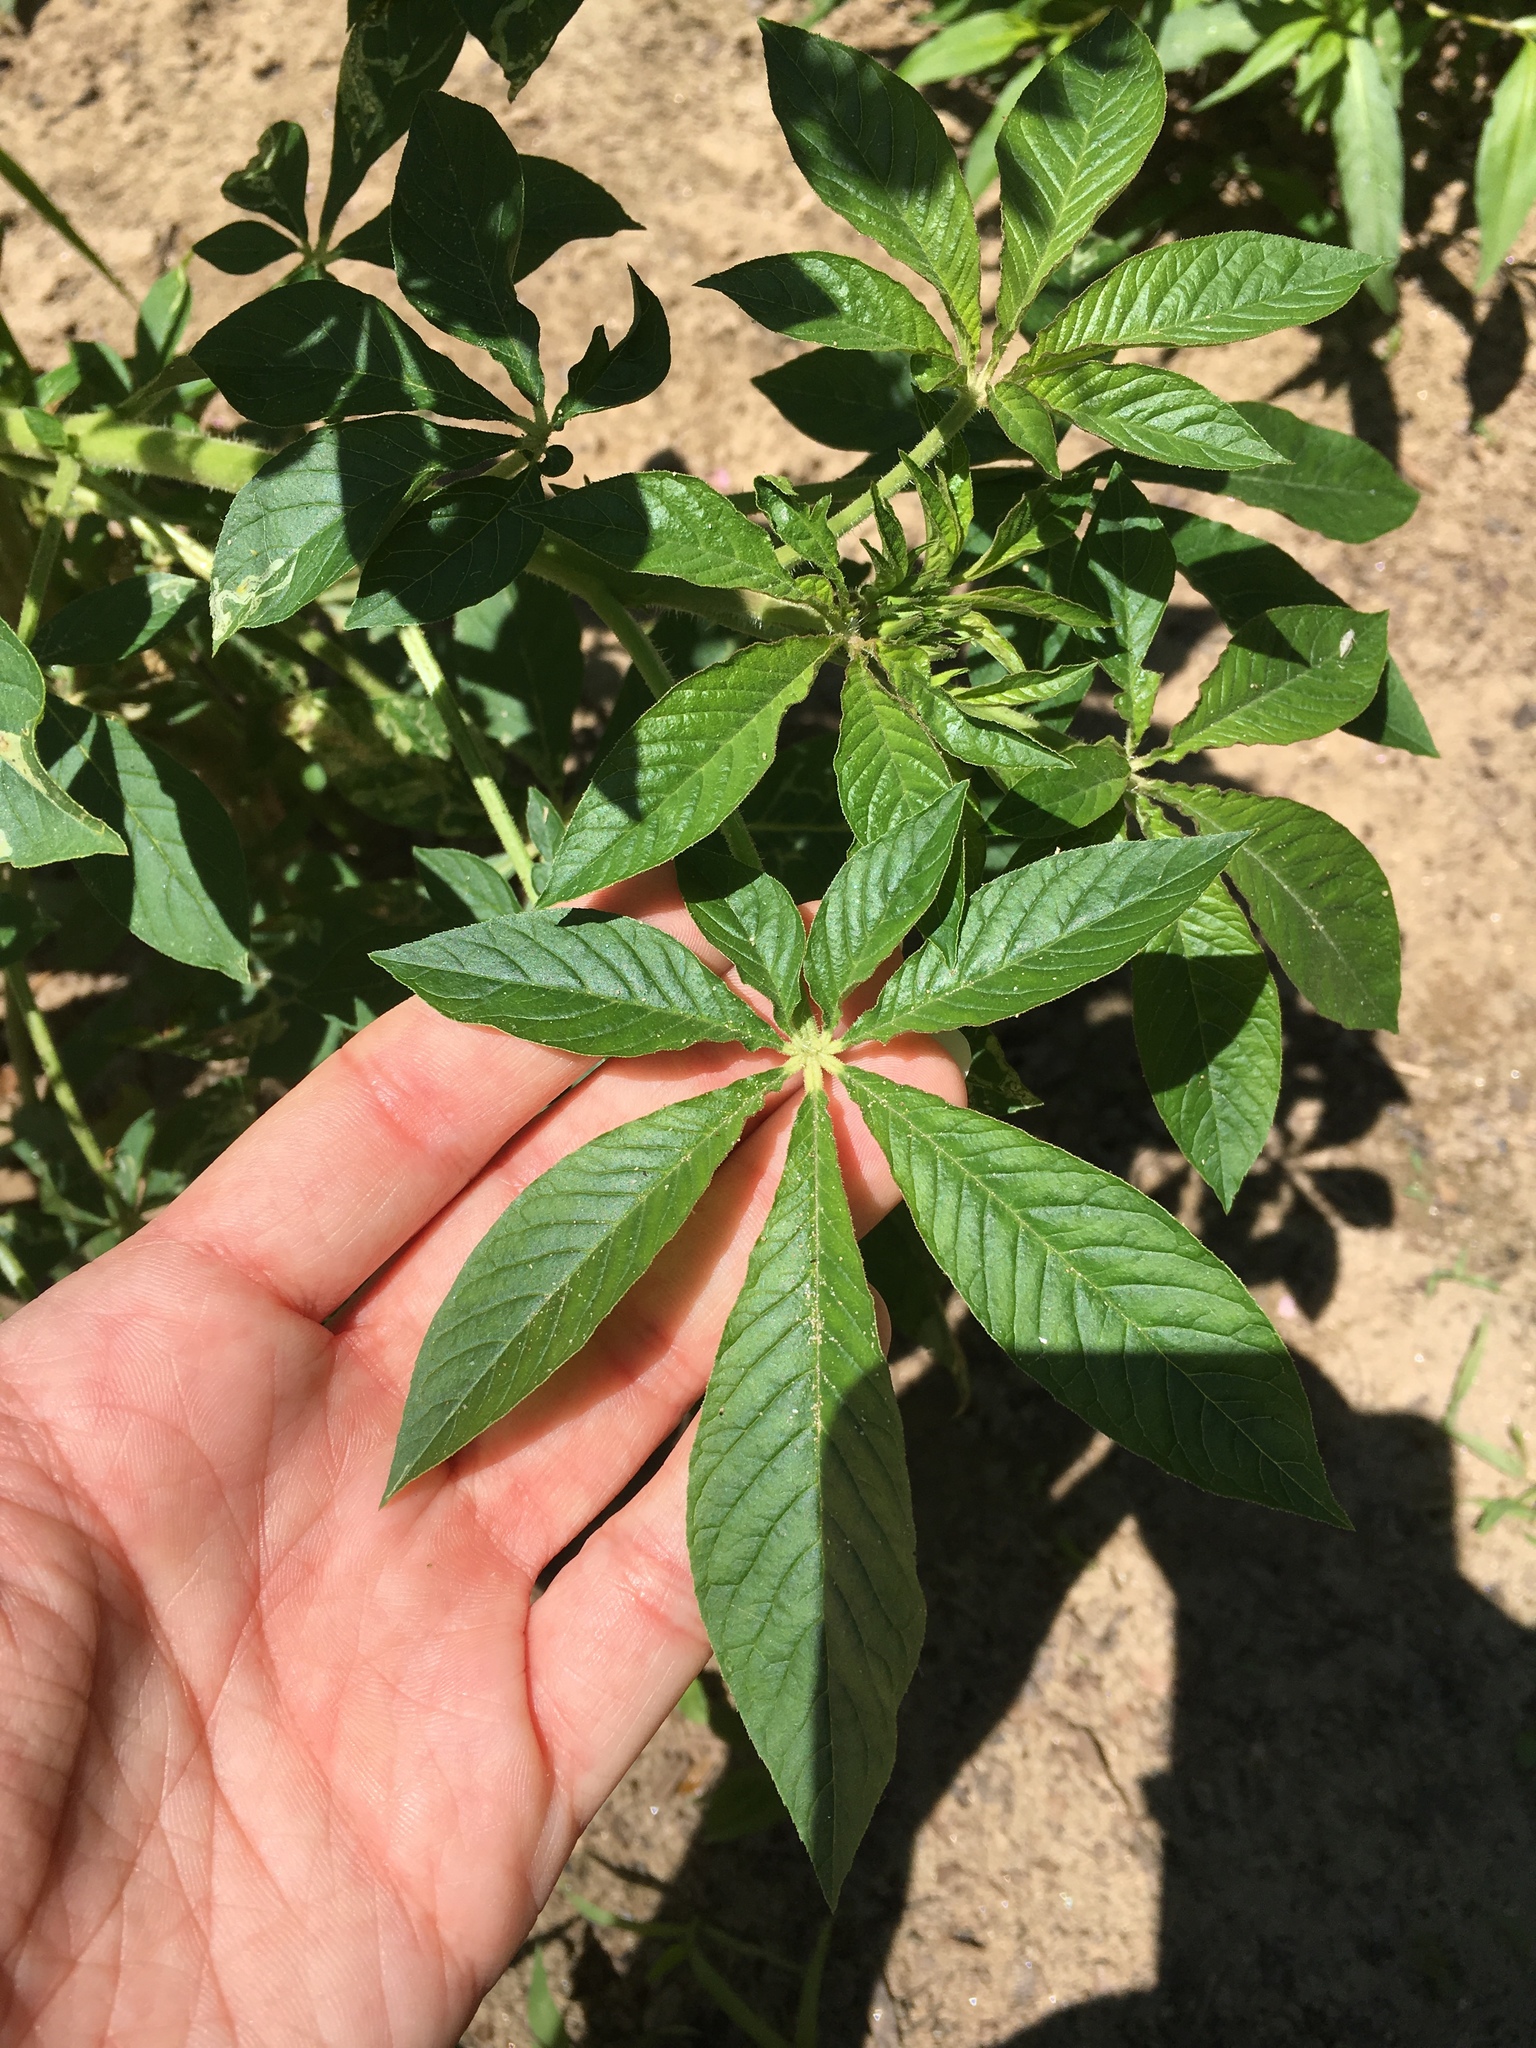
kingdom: Plantae
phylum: Tracheophyta
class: Magnoliopsida
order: Brassicales
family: Cleomaceae
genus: Tarenaya
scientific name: Tarenaya houtteana
